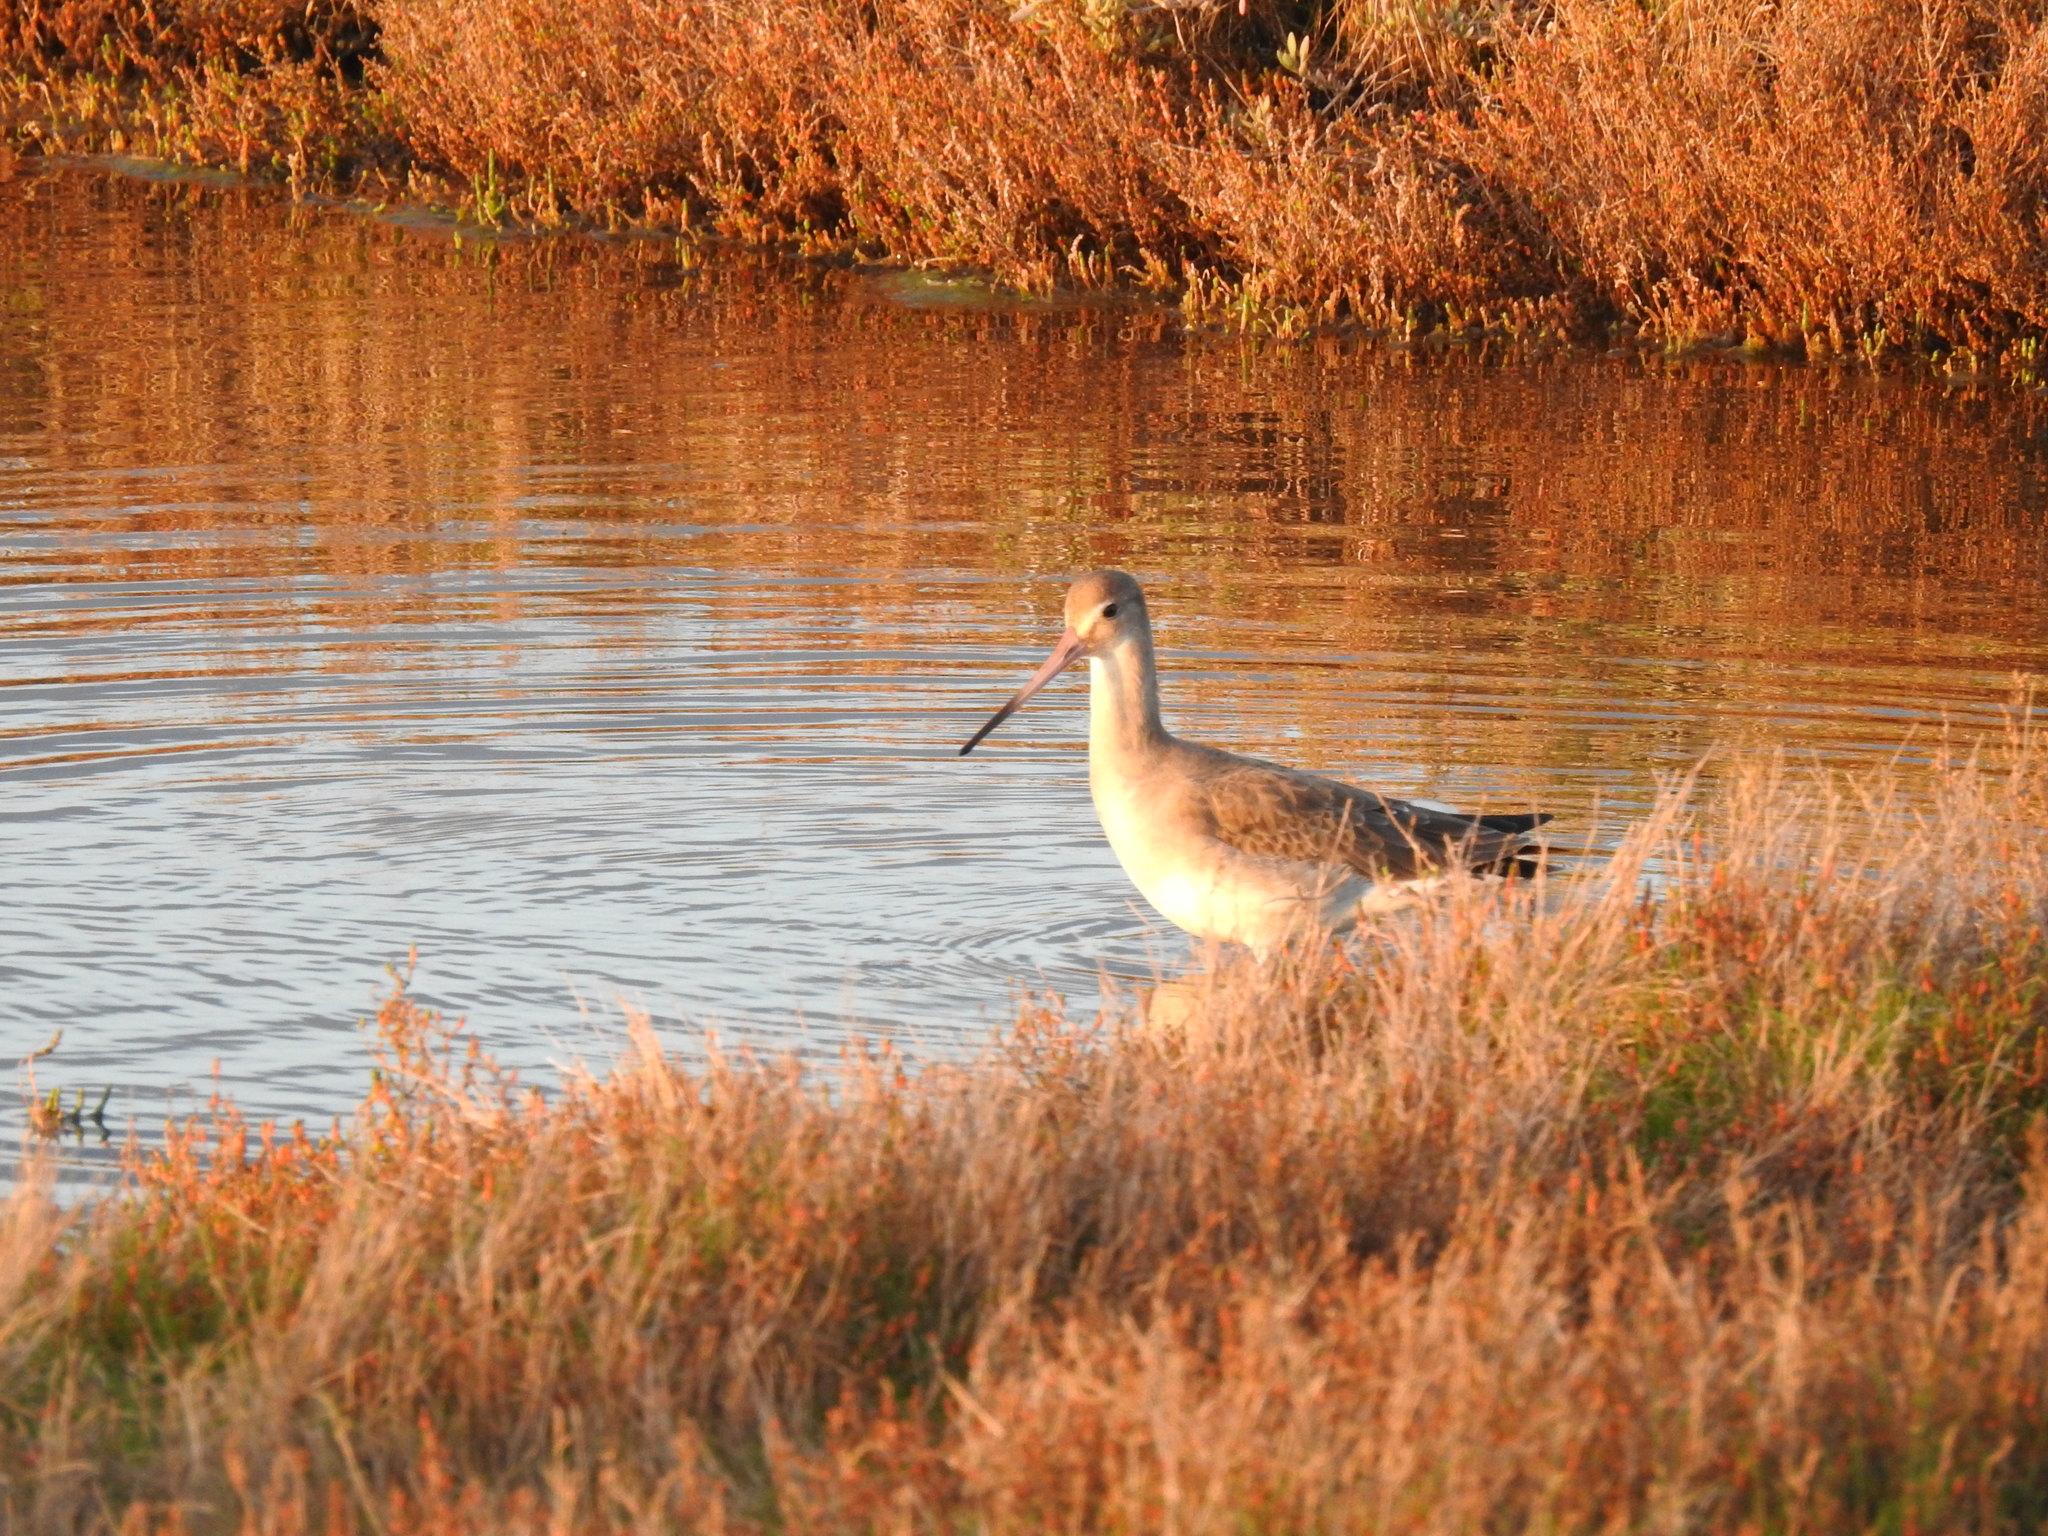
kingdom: Animalia
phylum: Chordata
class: Aves
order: Charadriiformes
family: Scolopacidae
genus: Limosa
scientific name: Limosa limosa
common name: Black-tailed godwit
